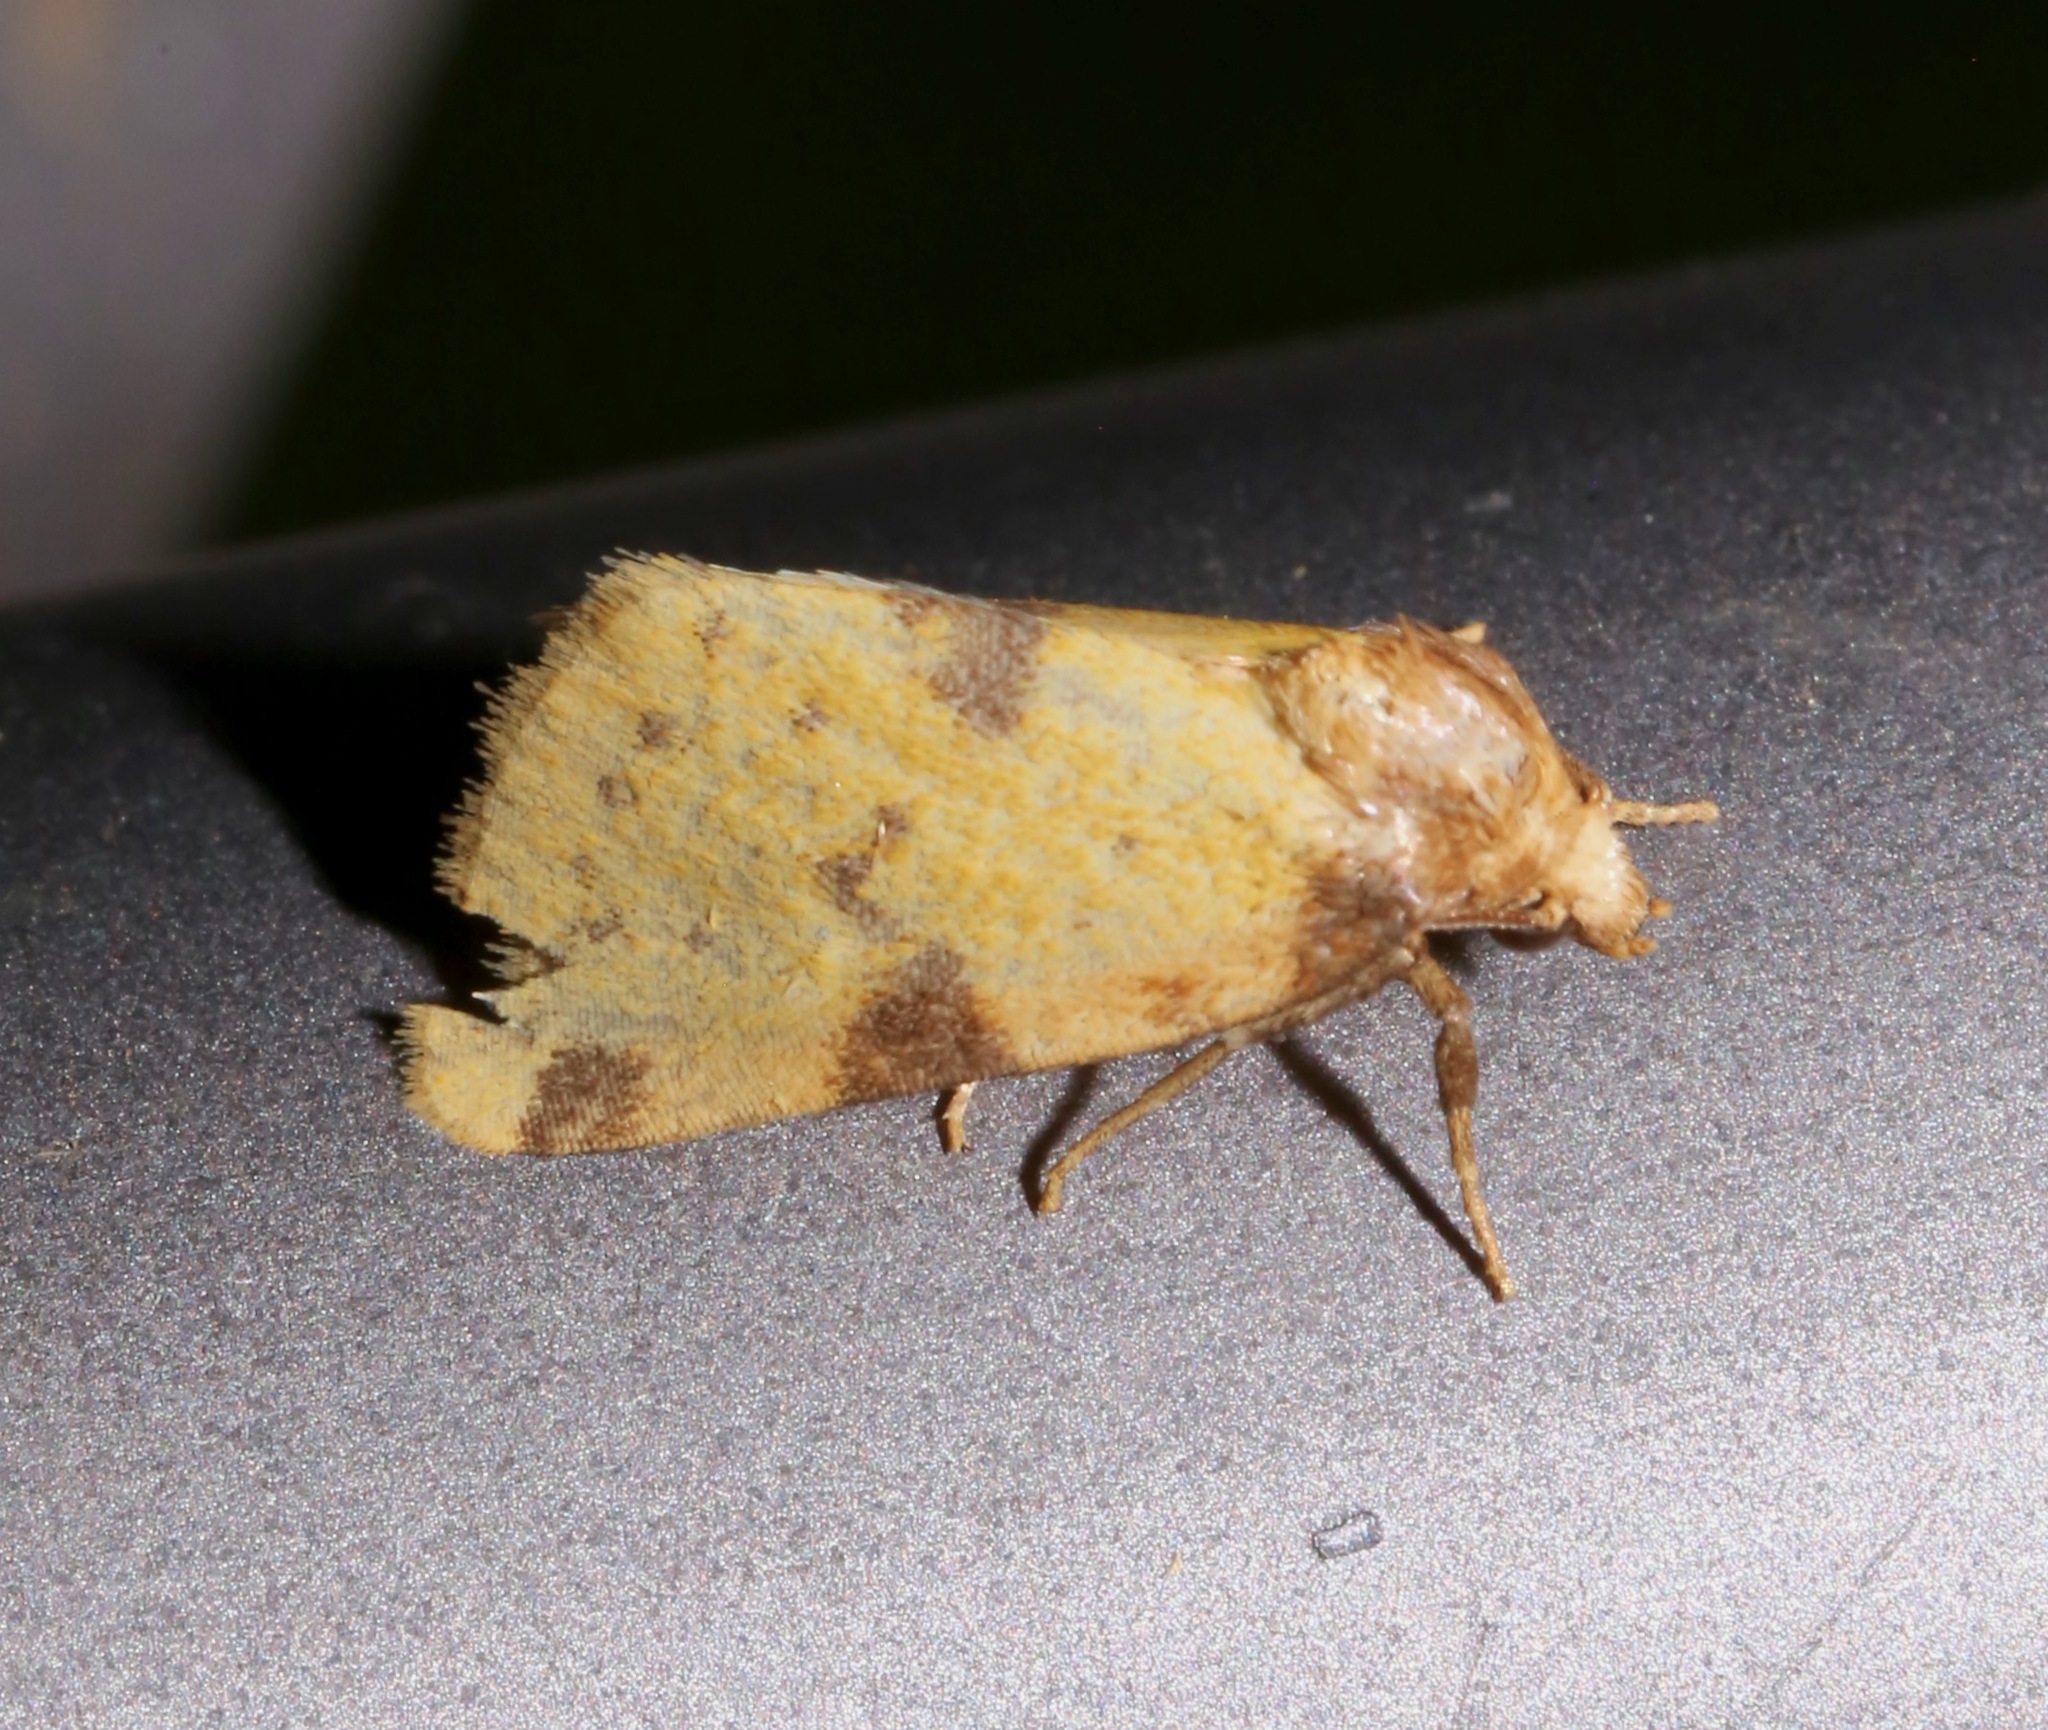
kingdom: Animalia
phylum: Arthropoda
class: Insecta
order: Lepidoptera
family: Noctuidae
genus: Azenia
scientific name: Azenia obtusa
